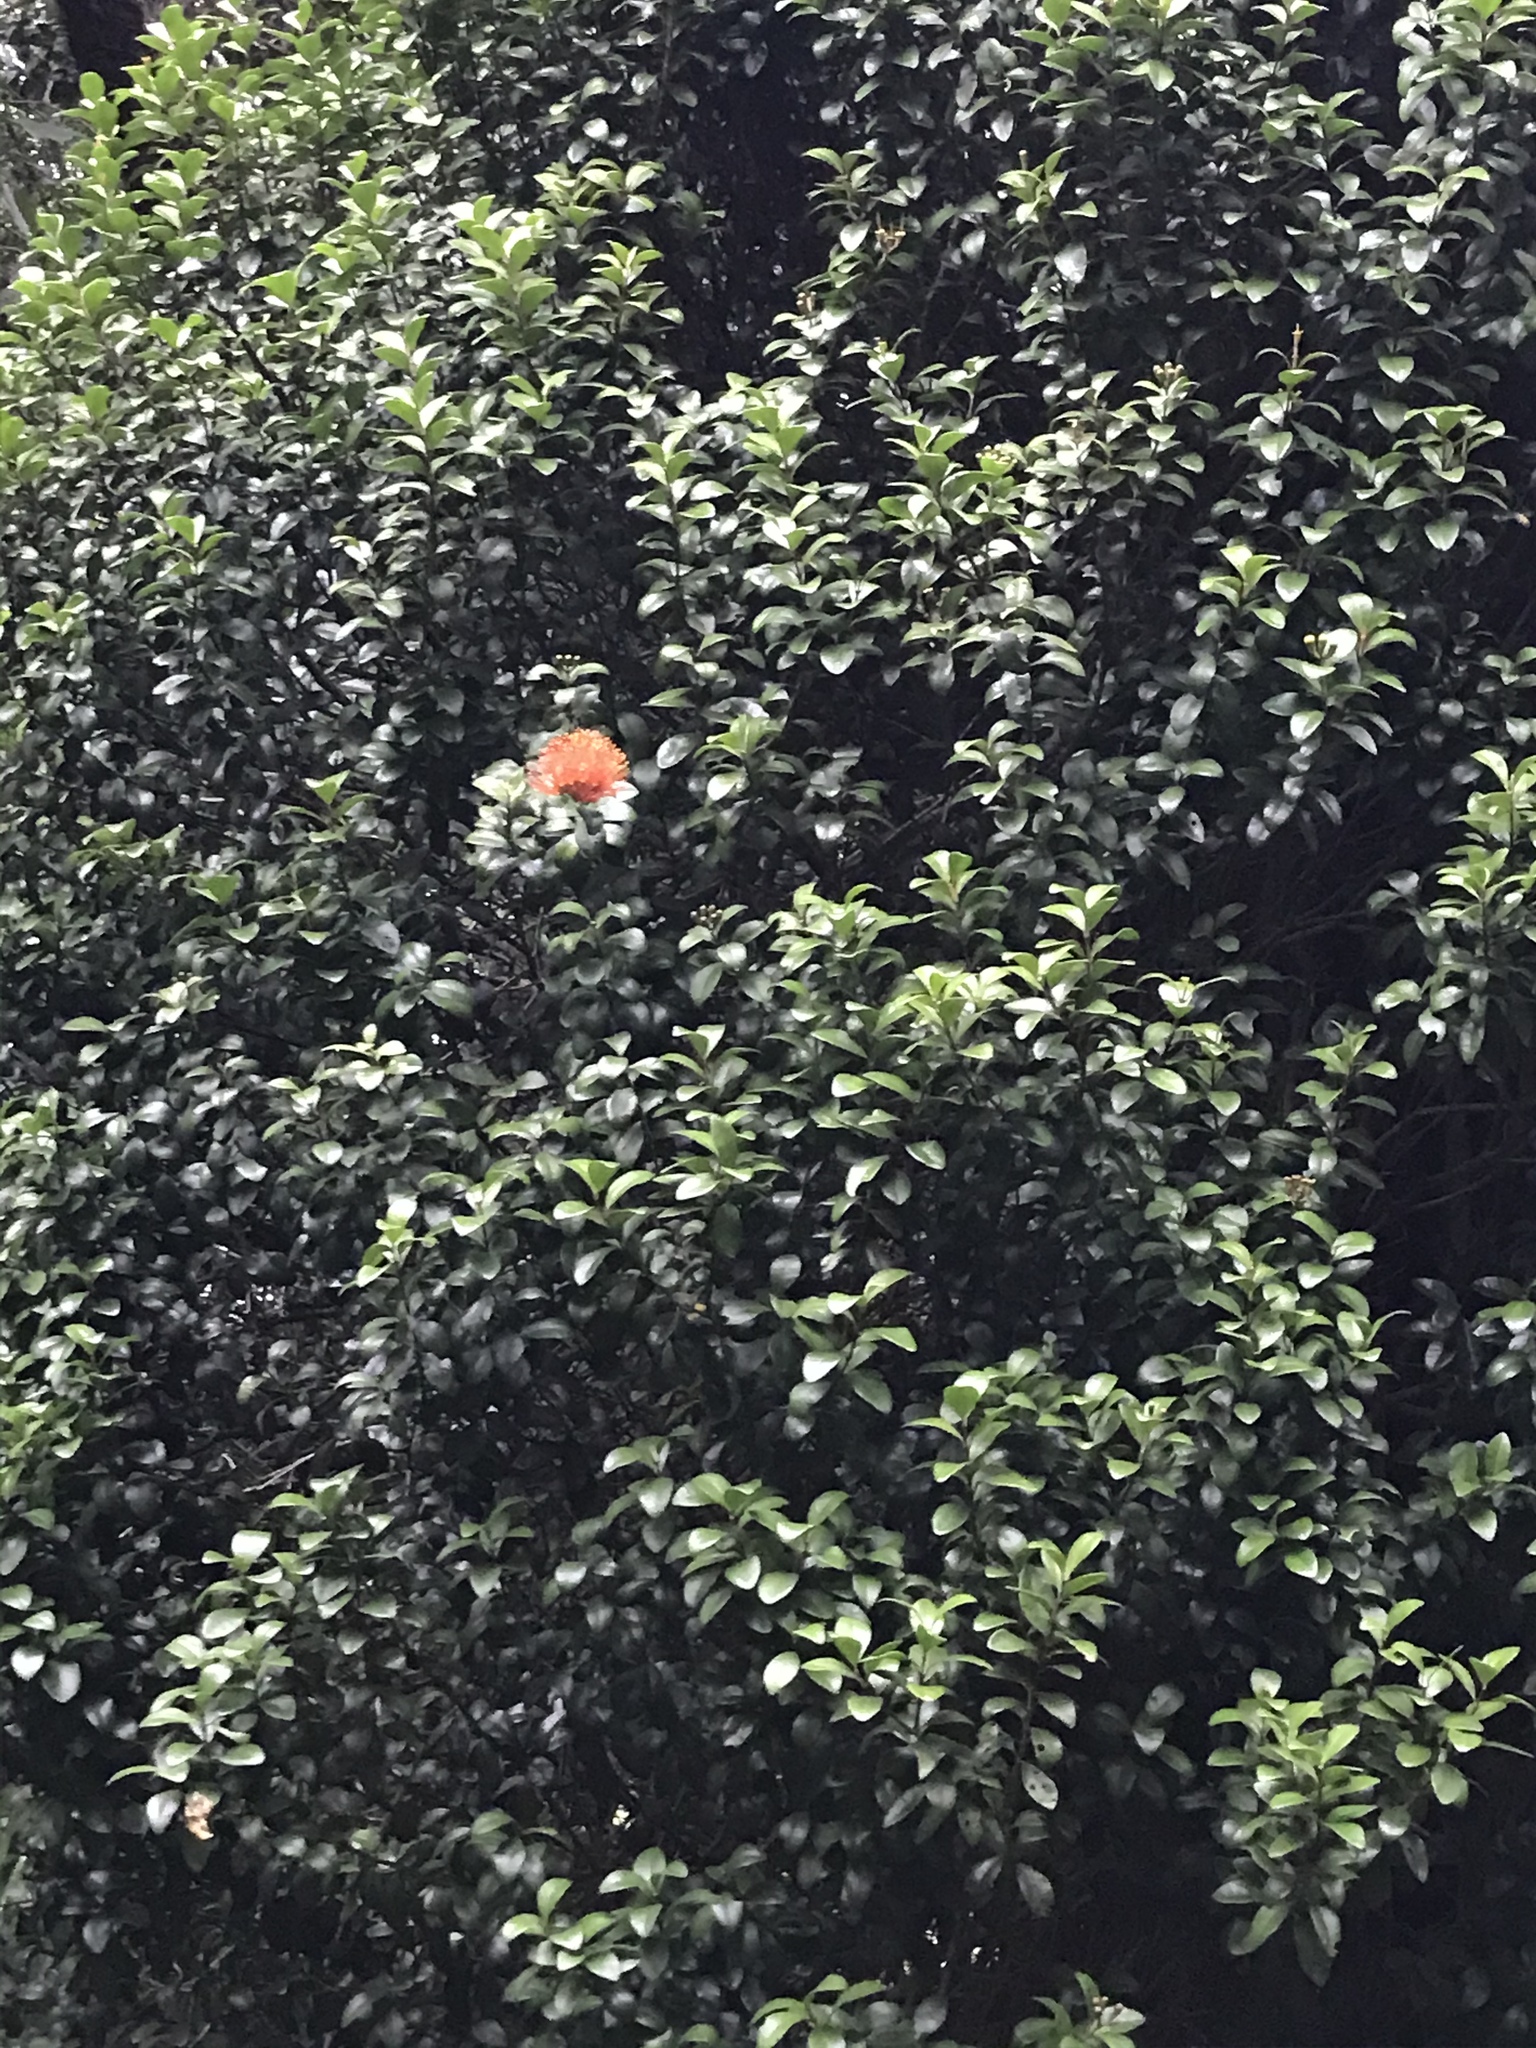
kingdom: Plantae
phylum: Tracheophyta
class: Magnoliopsida
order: Myrtales
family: Myrtaceae
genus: Metrosideros
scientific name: Metrosideros fulgens
